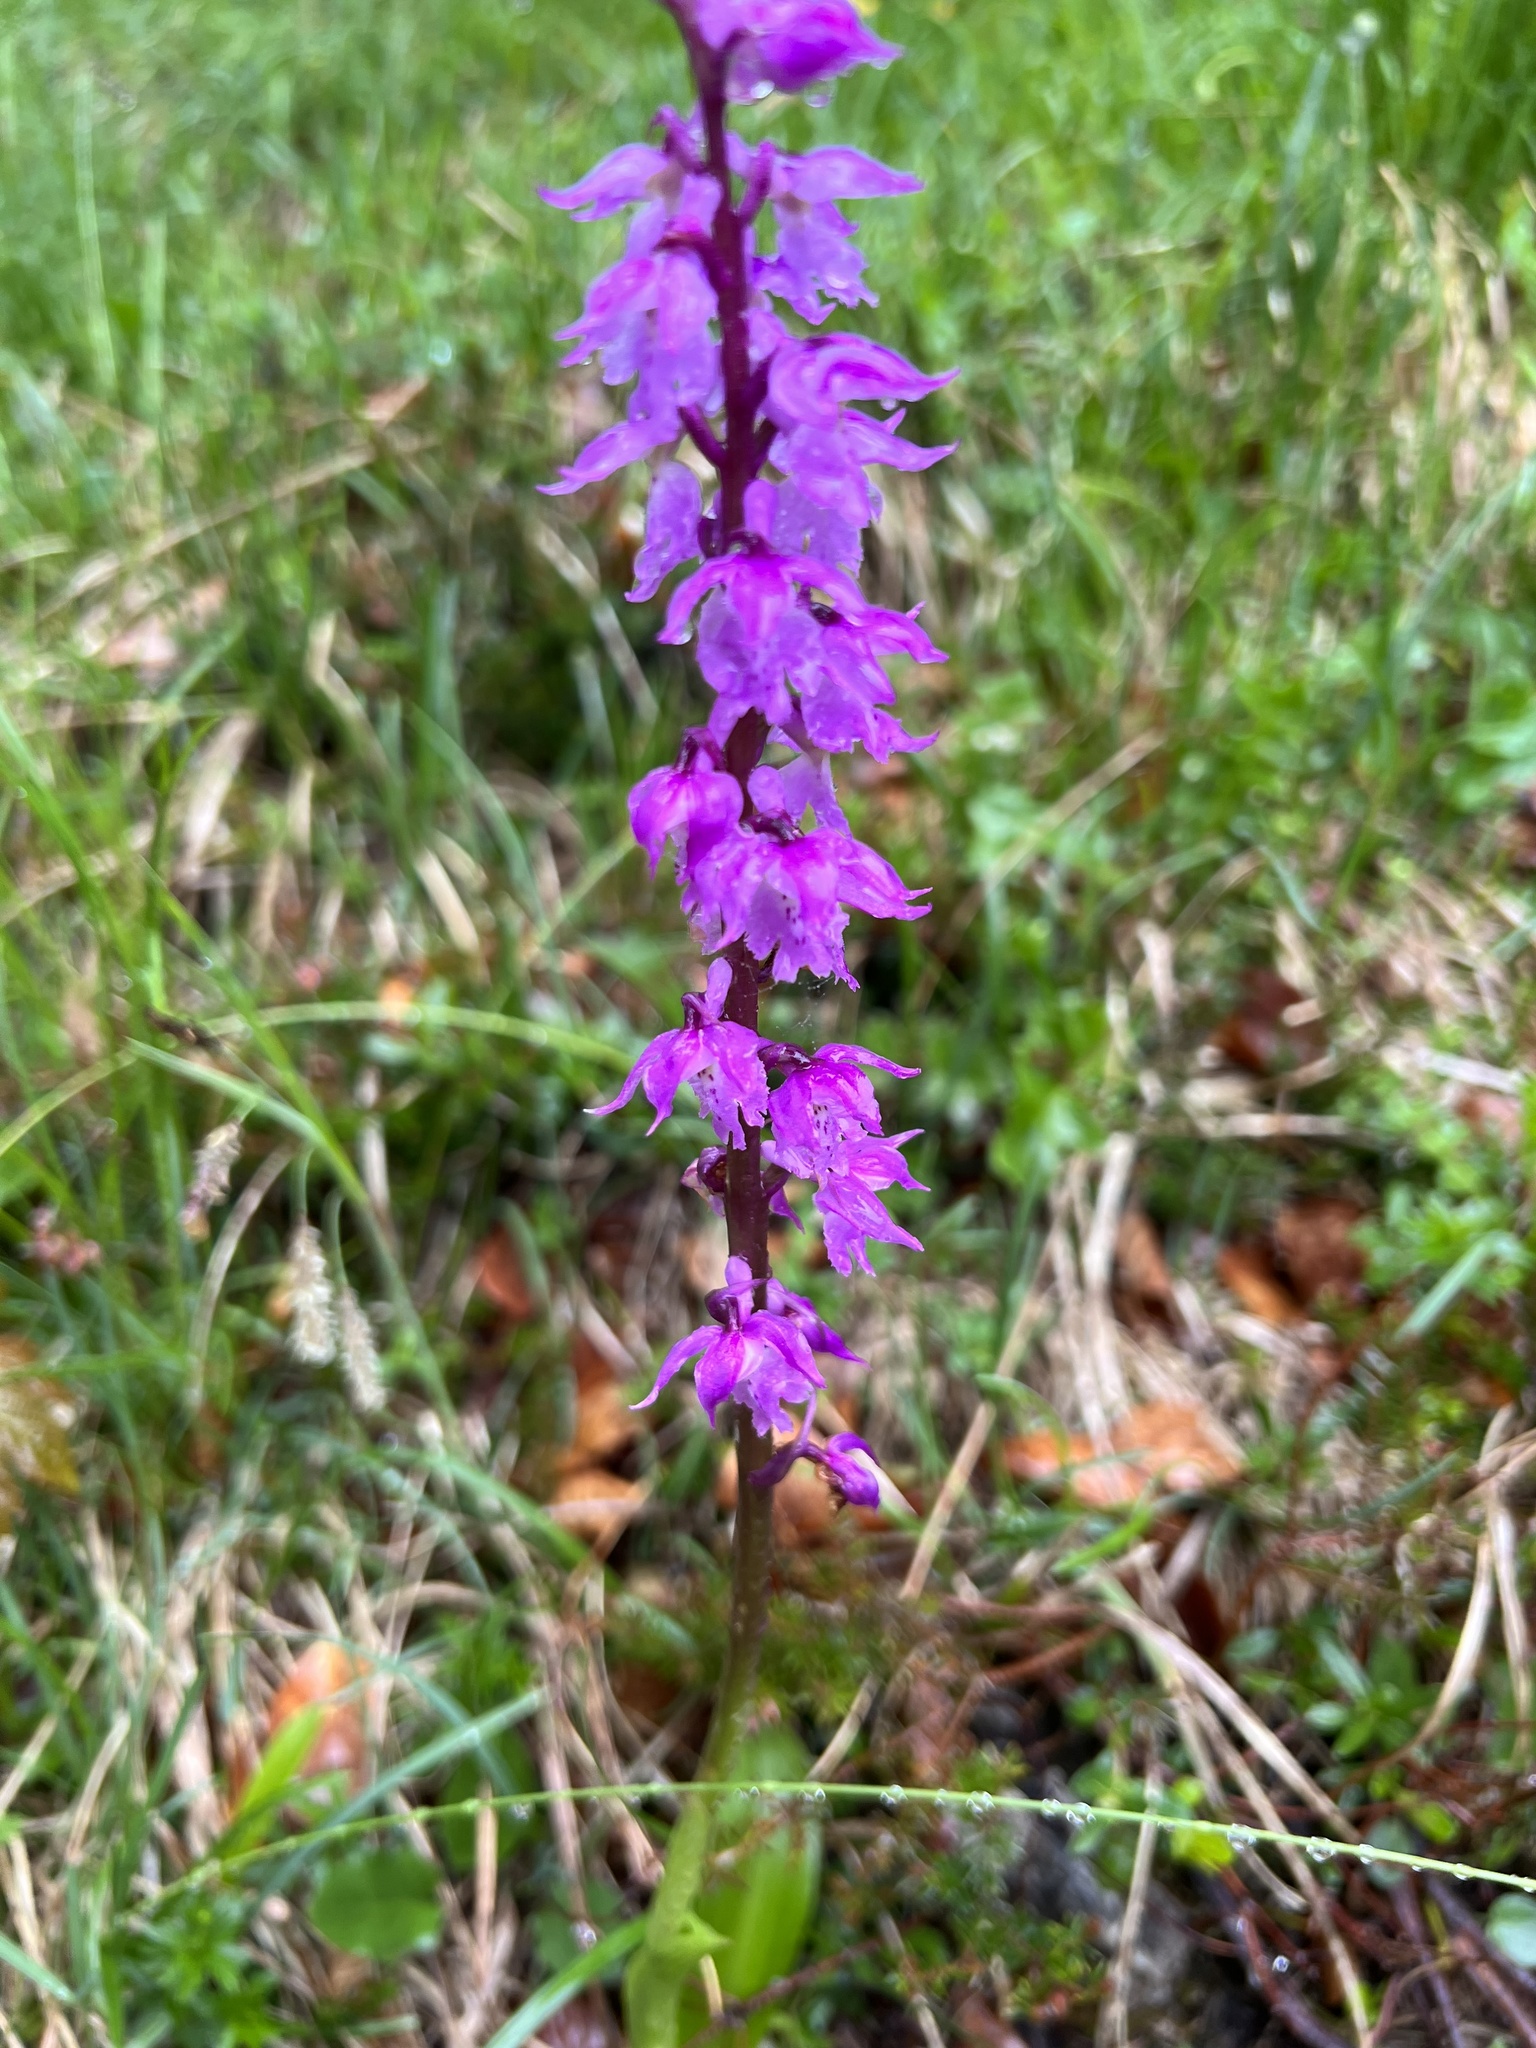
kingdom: Plantae
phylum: Tracheophyta
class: Liliopsida
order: Asparagales
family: Orchidaceae
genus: Orchis
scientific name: Orchis mascula
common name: Early-purple orchid
